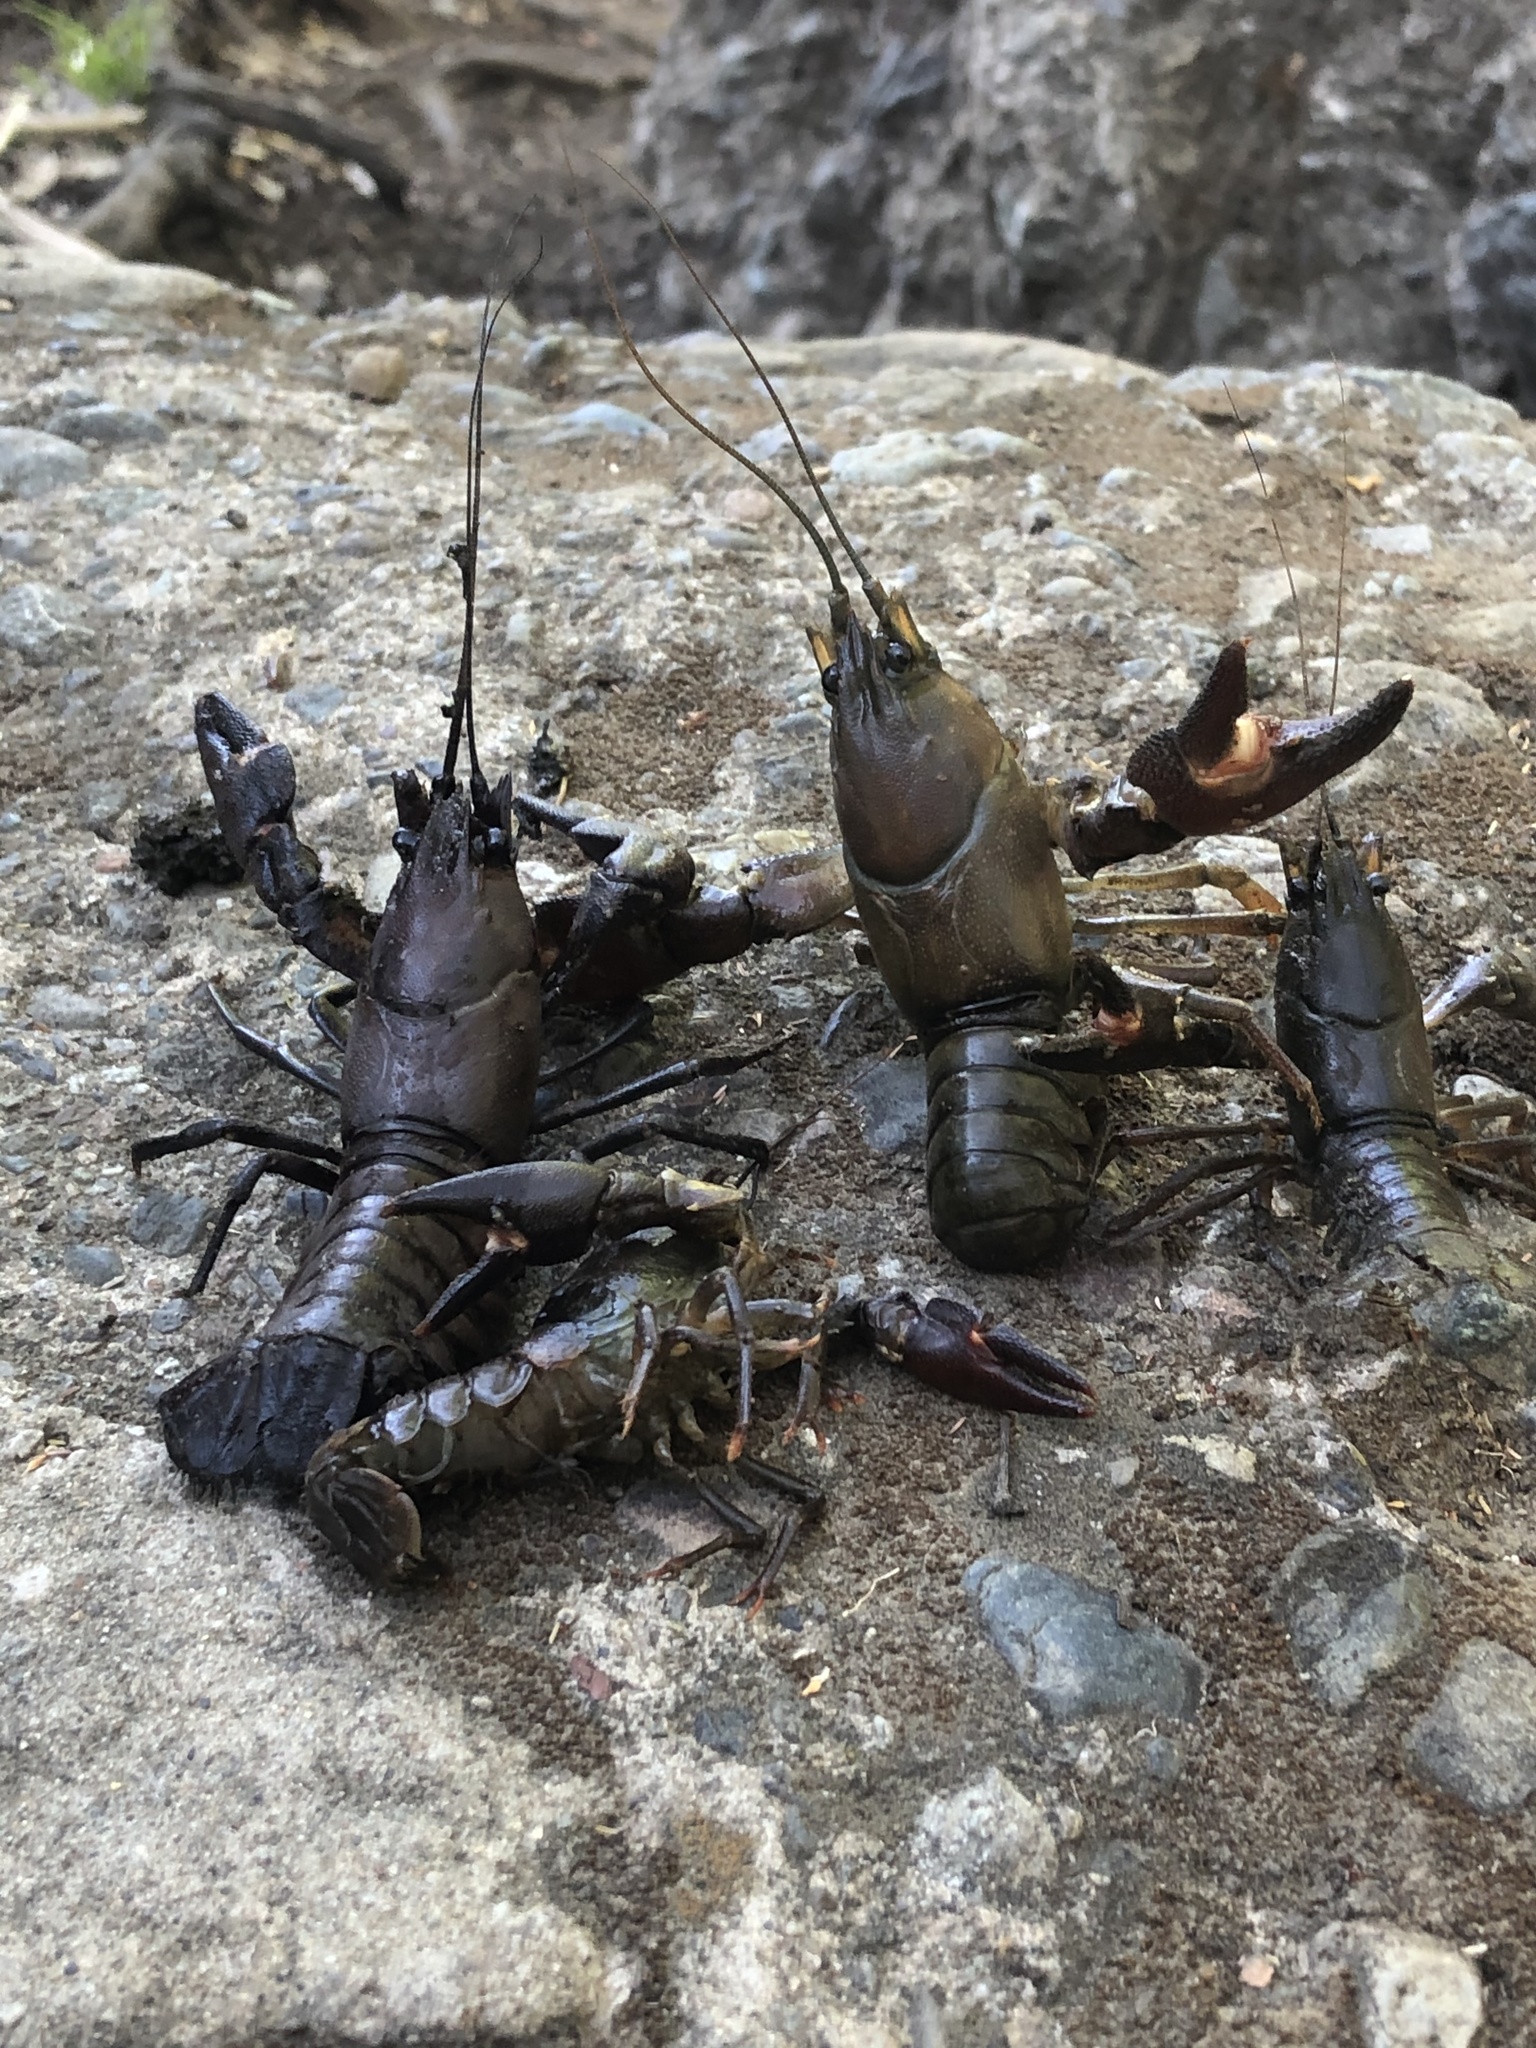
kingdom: Animalia
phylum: Arthropoda
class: Malacostraca
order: Decapoda
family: Astacidae
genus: Pacifastacus
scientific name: Pacifastacus leniusculus
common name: Signal crayfish
